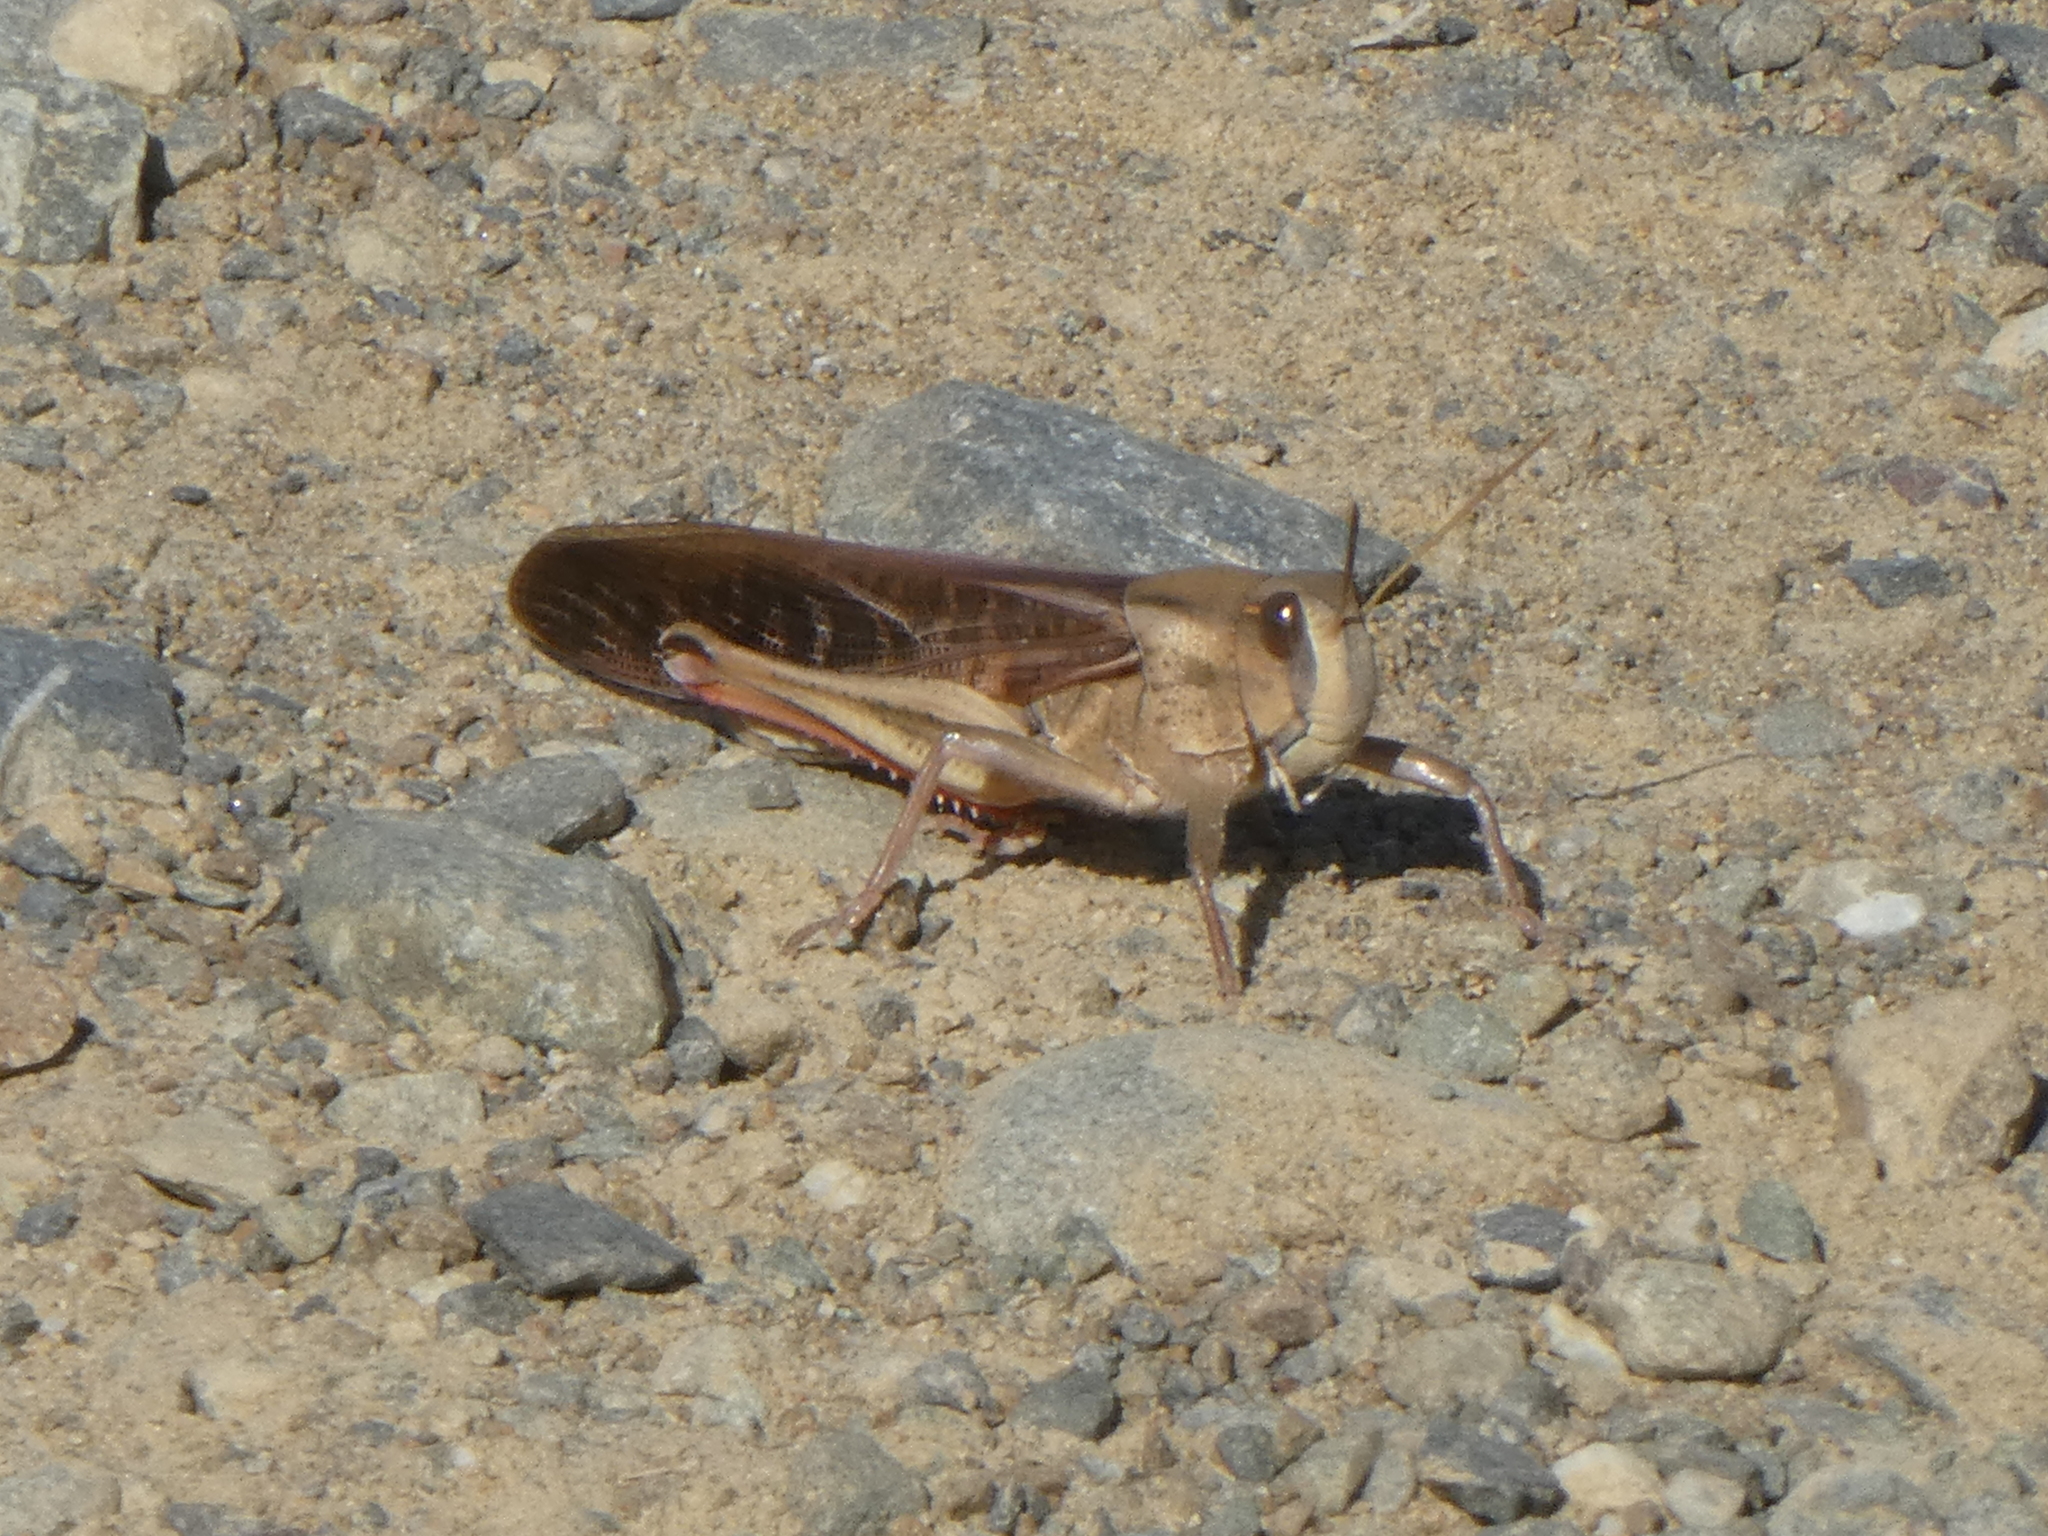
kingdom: Animalia
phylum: Arthropoda
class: Insecta
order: Orthoptera
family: Acrididae
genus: Locusta
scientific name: Locusta migratoria
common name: Migratory locust
